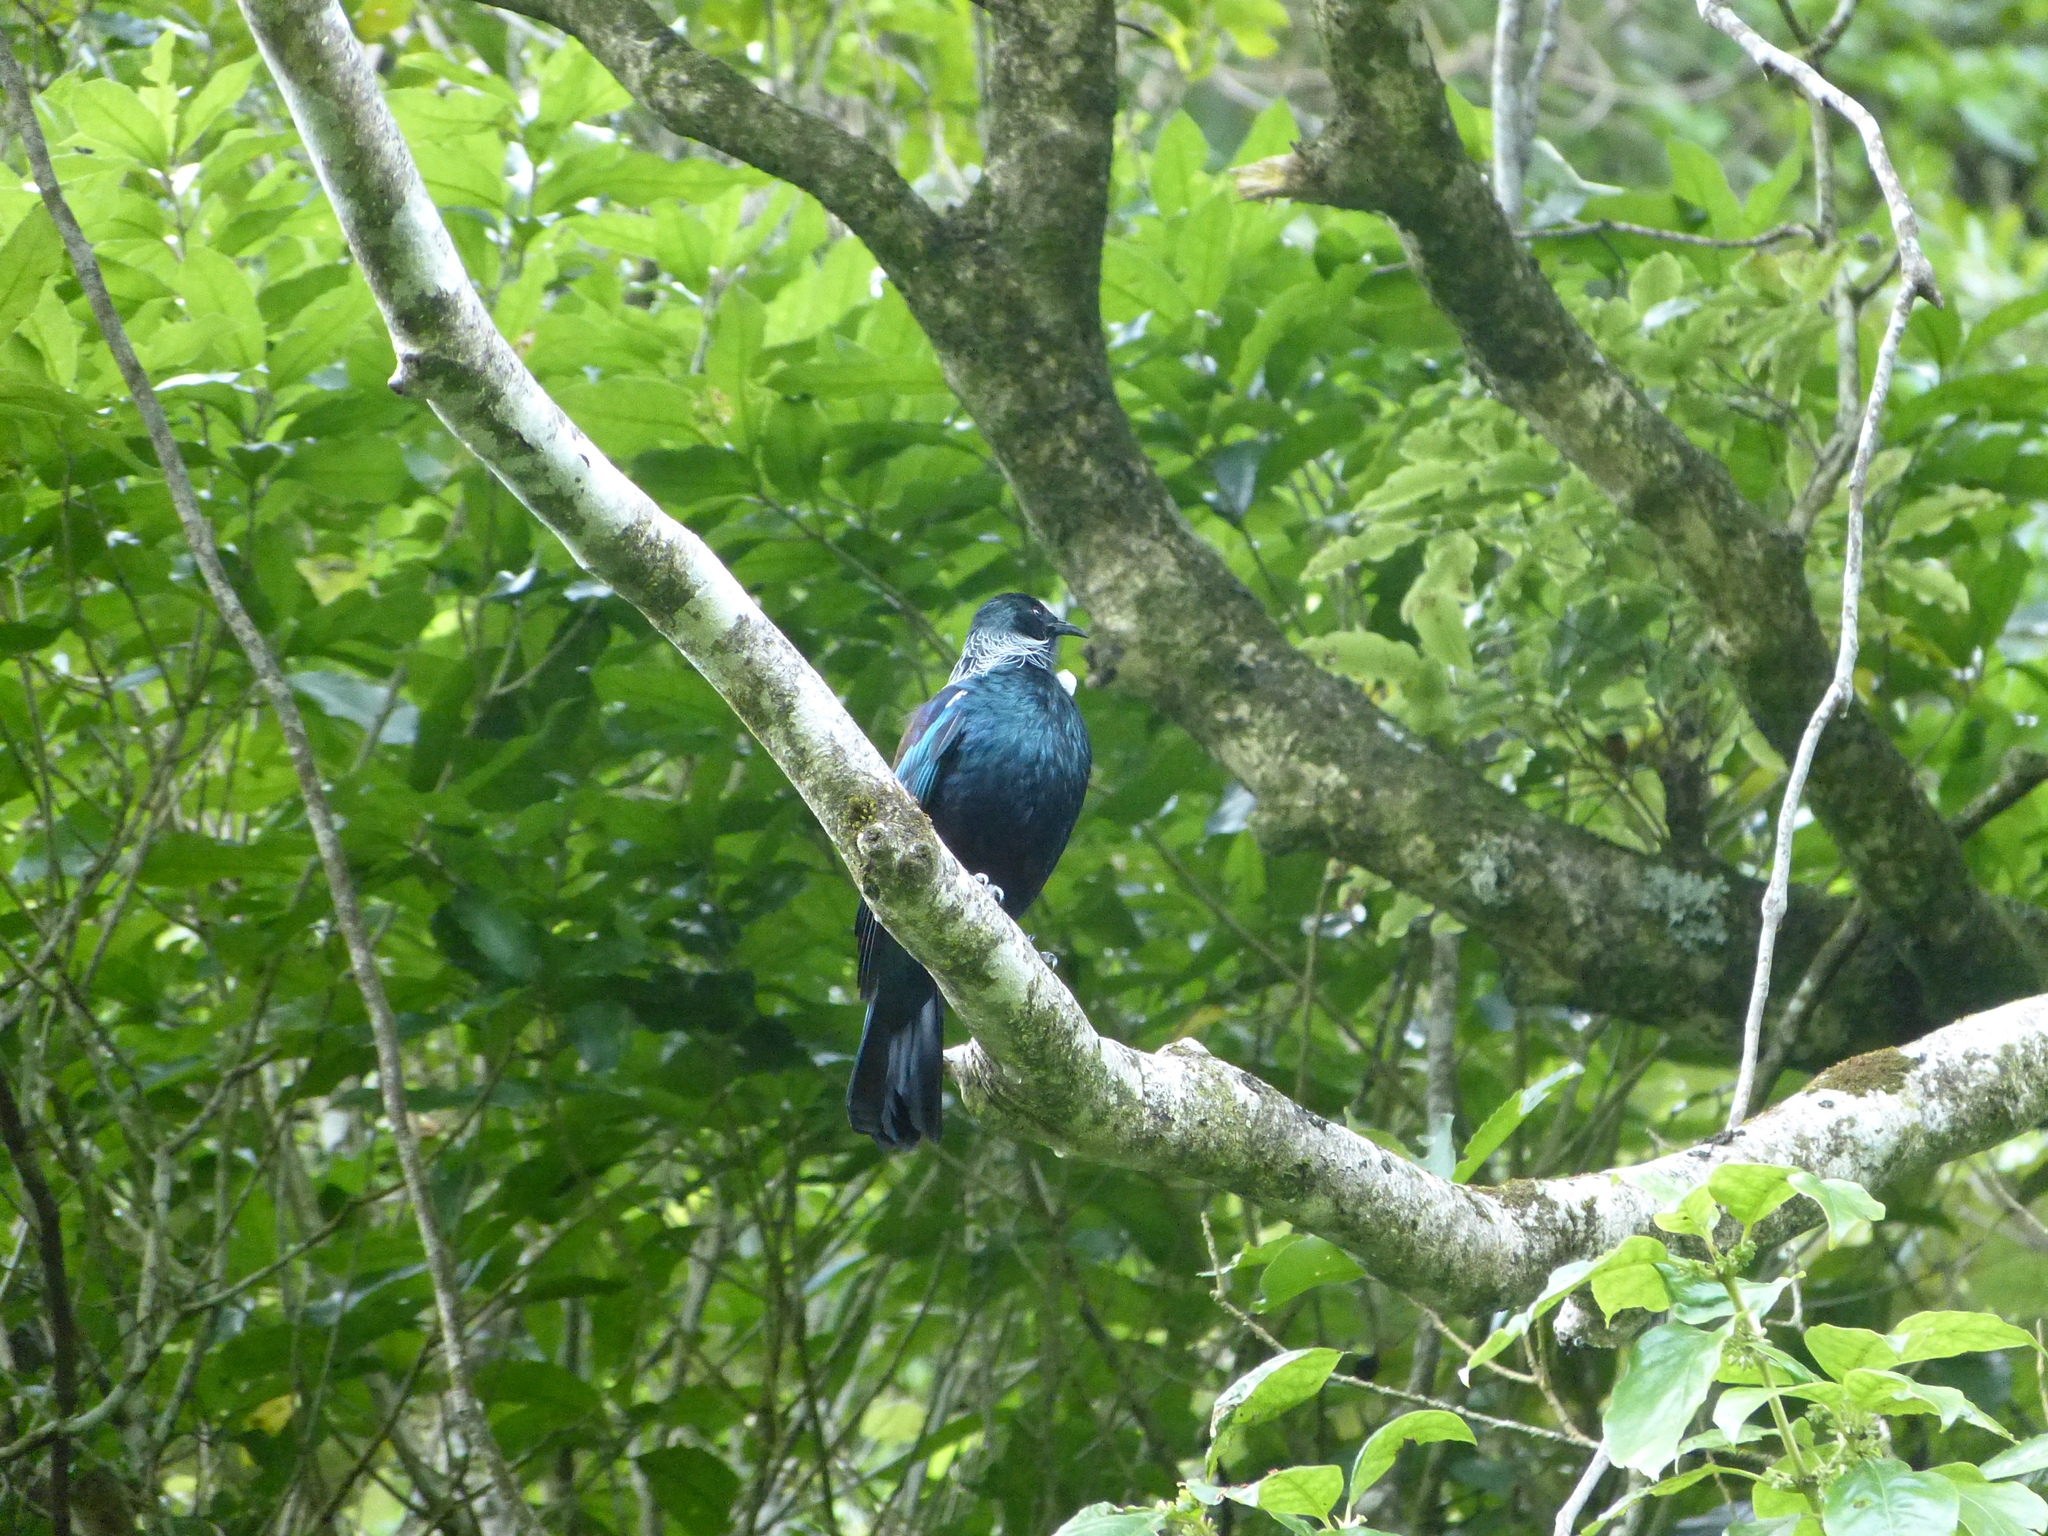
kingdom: Animalia
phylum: Chordata
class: Aves
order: Passeriformes
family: Meliphagidae
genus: Prosthemadera
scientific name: Prosthemadera novaeseelandiae
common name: Tui
